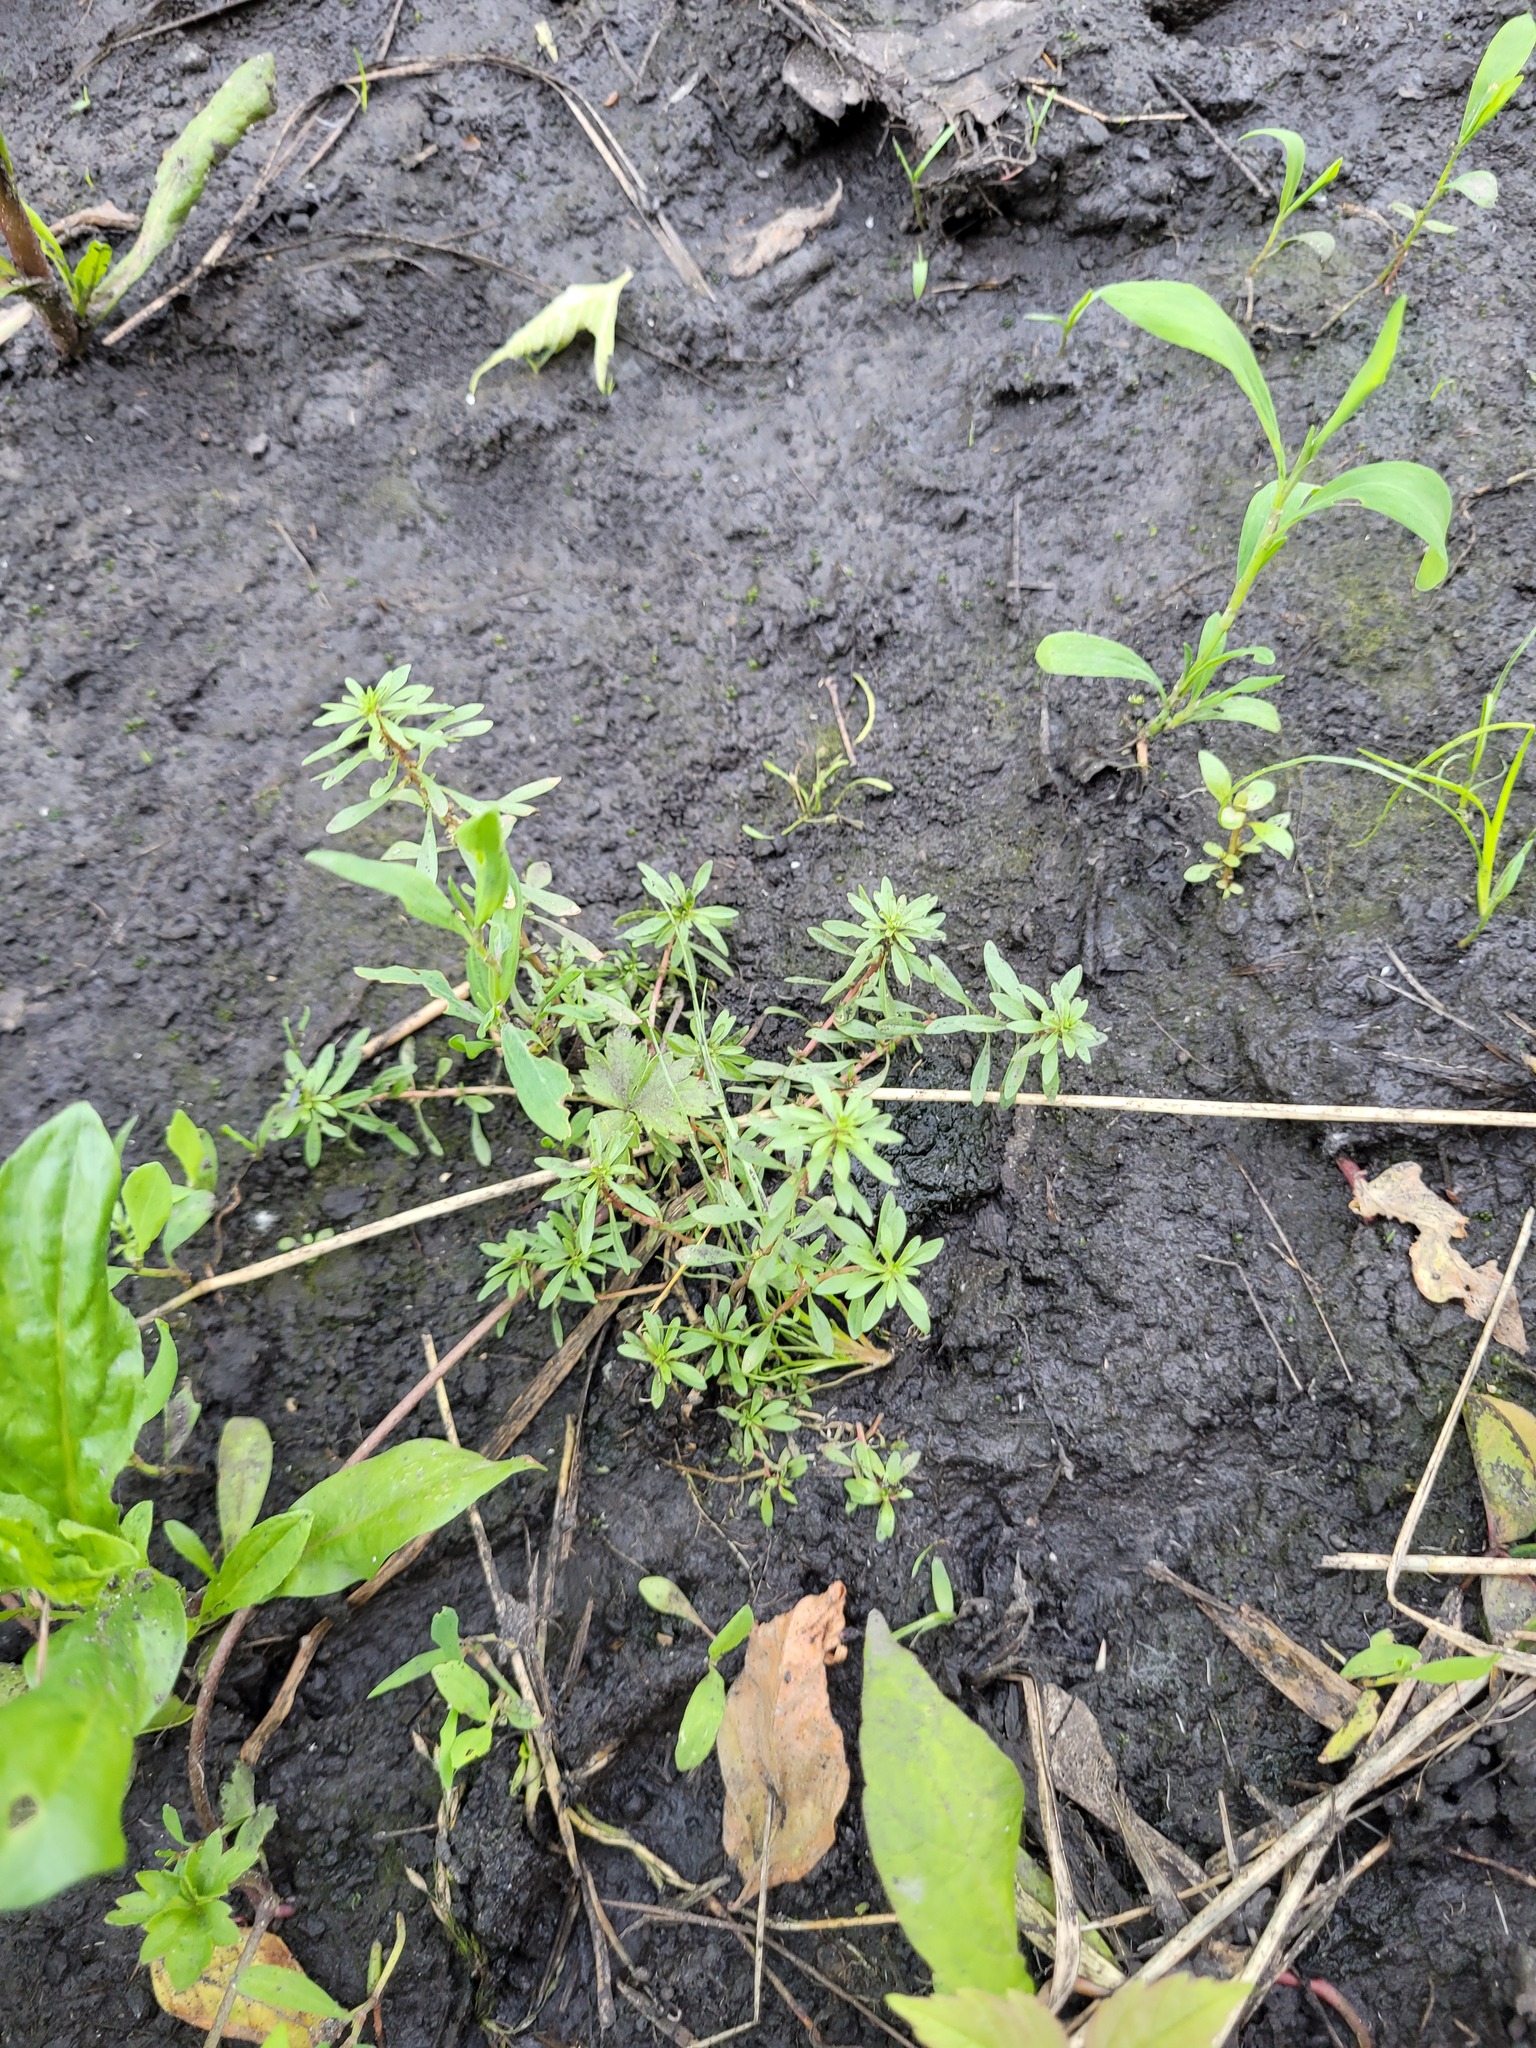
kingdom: Plantae
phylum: Tracheophyta
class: Magnoliopsida
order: Myrtales
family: Lythraceae
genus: Lythrum
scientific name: Lythrum volgense
